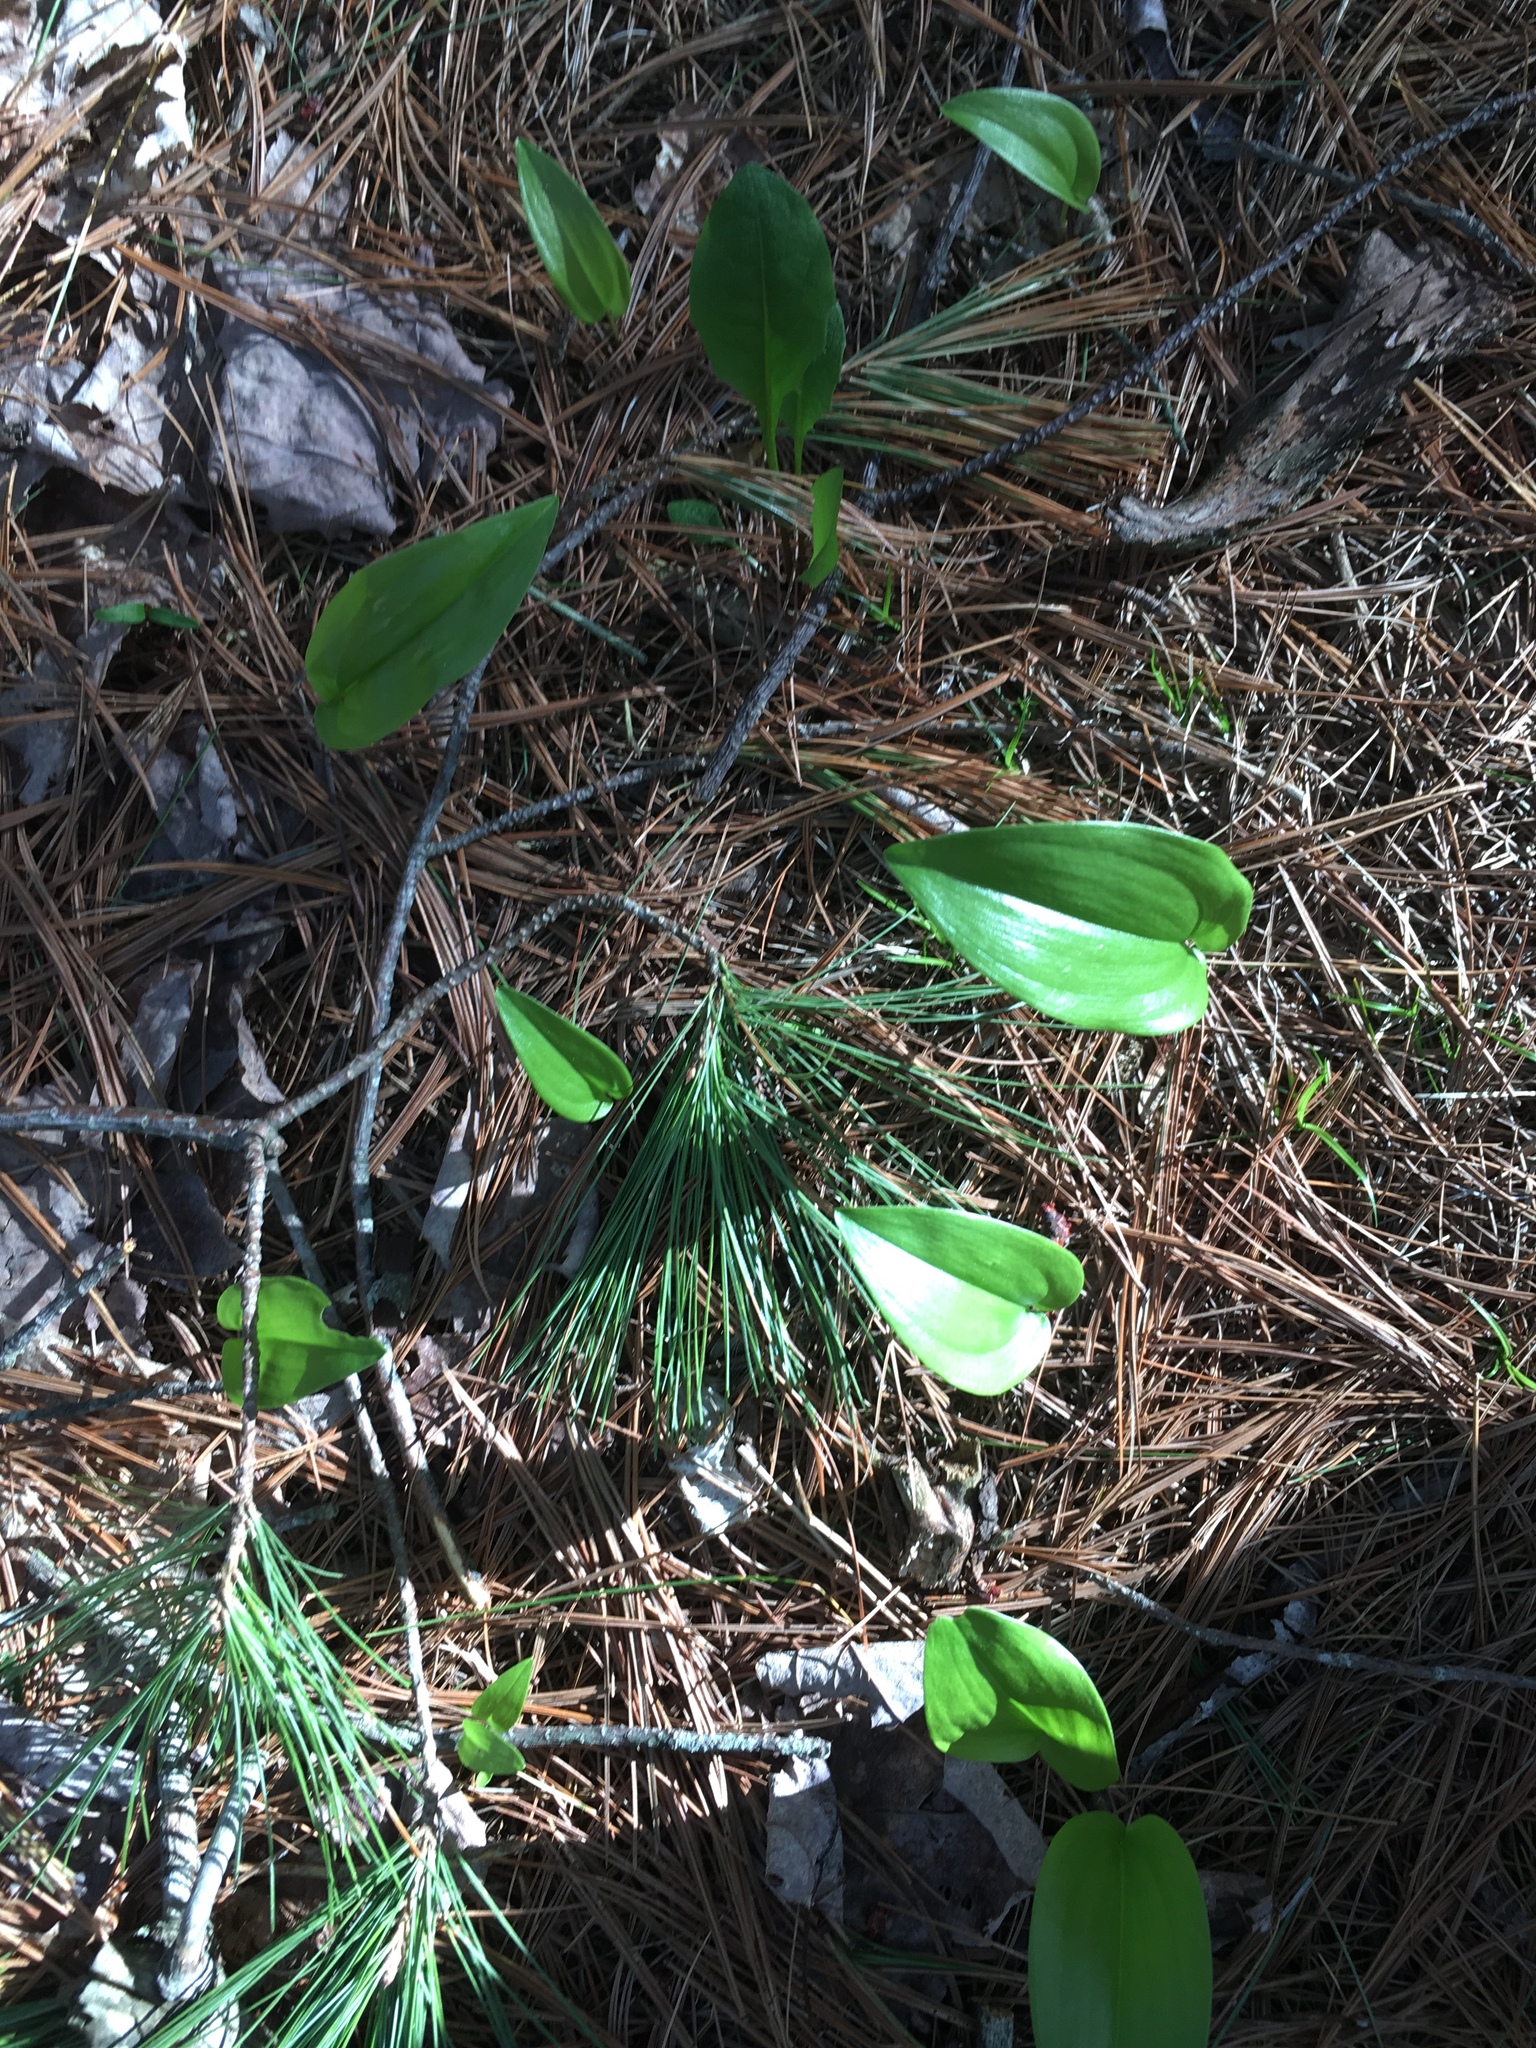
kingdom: Plantae
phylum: Tracheophyta
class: Liliopsida
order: Asparagales
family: Asparagaceae
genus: Maianthemum
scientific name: Maianthemum canadense
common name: False lily-of-the-valley
